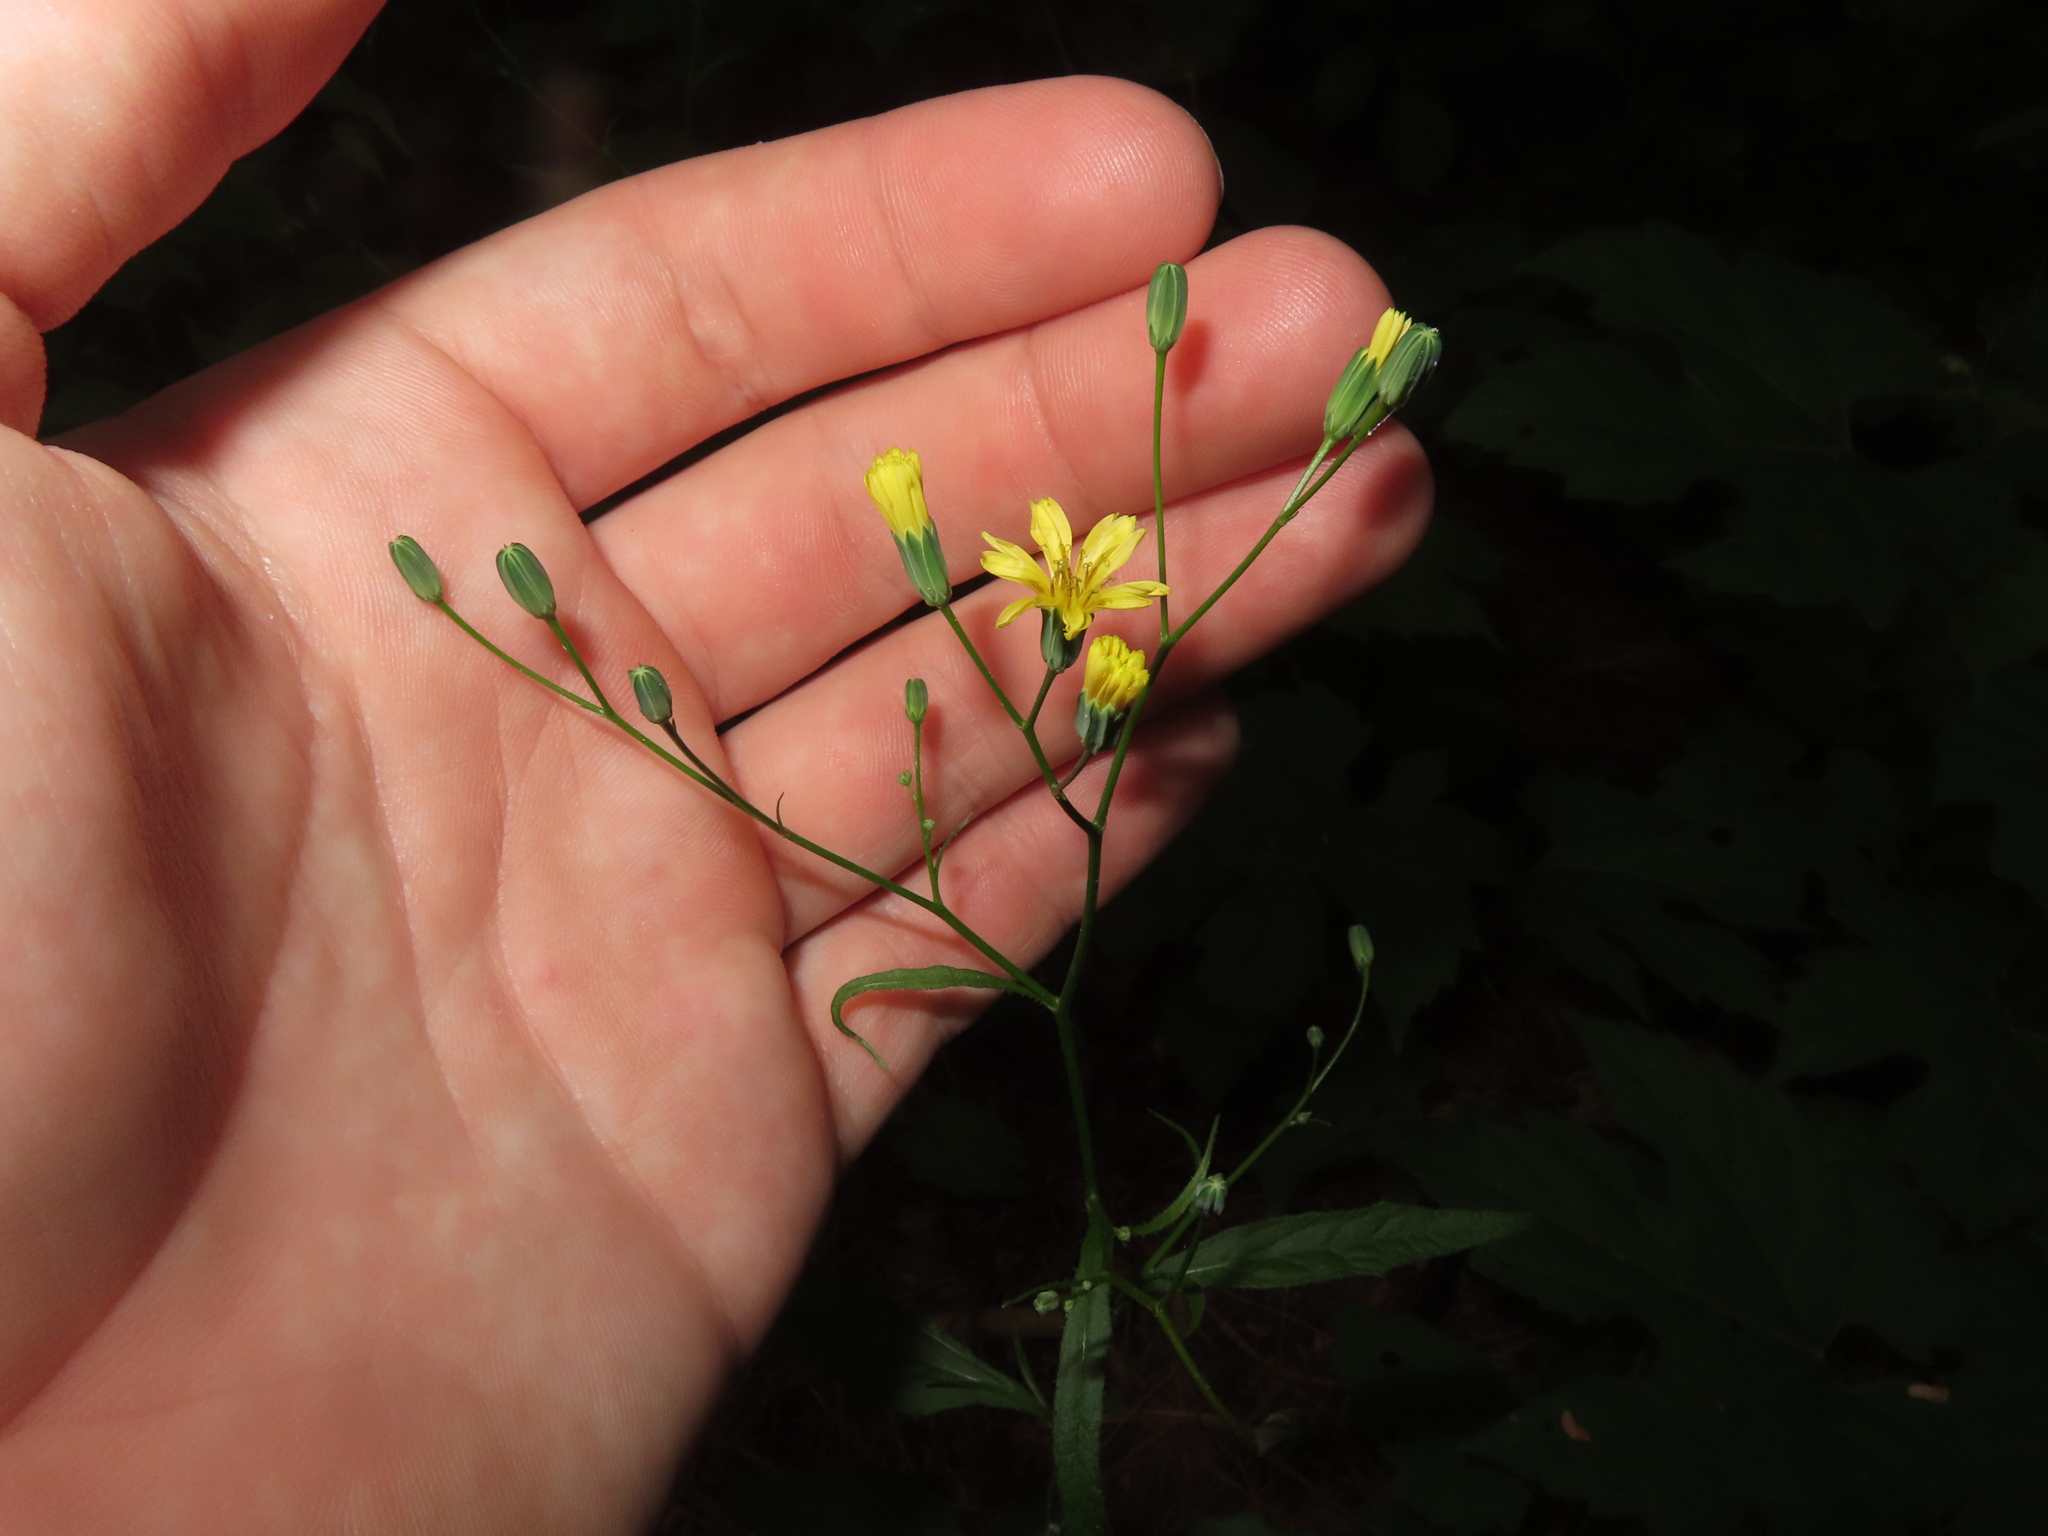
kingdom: Plantae
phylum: Tracheophyta
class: Magnoliopsida
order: Asterales
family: Asteraceae
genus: Lapsana
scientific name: Lapsana communis
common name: Nipplewort
